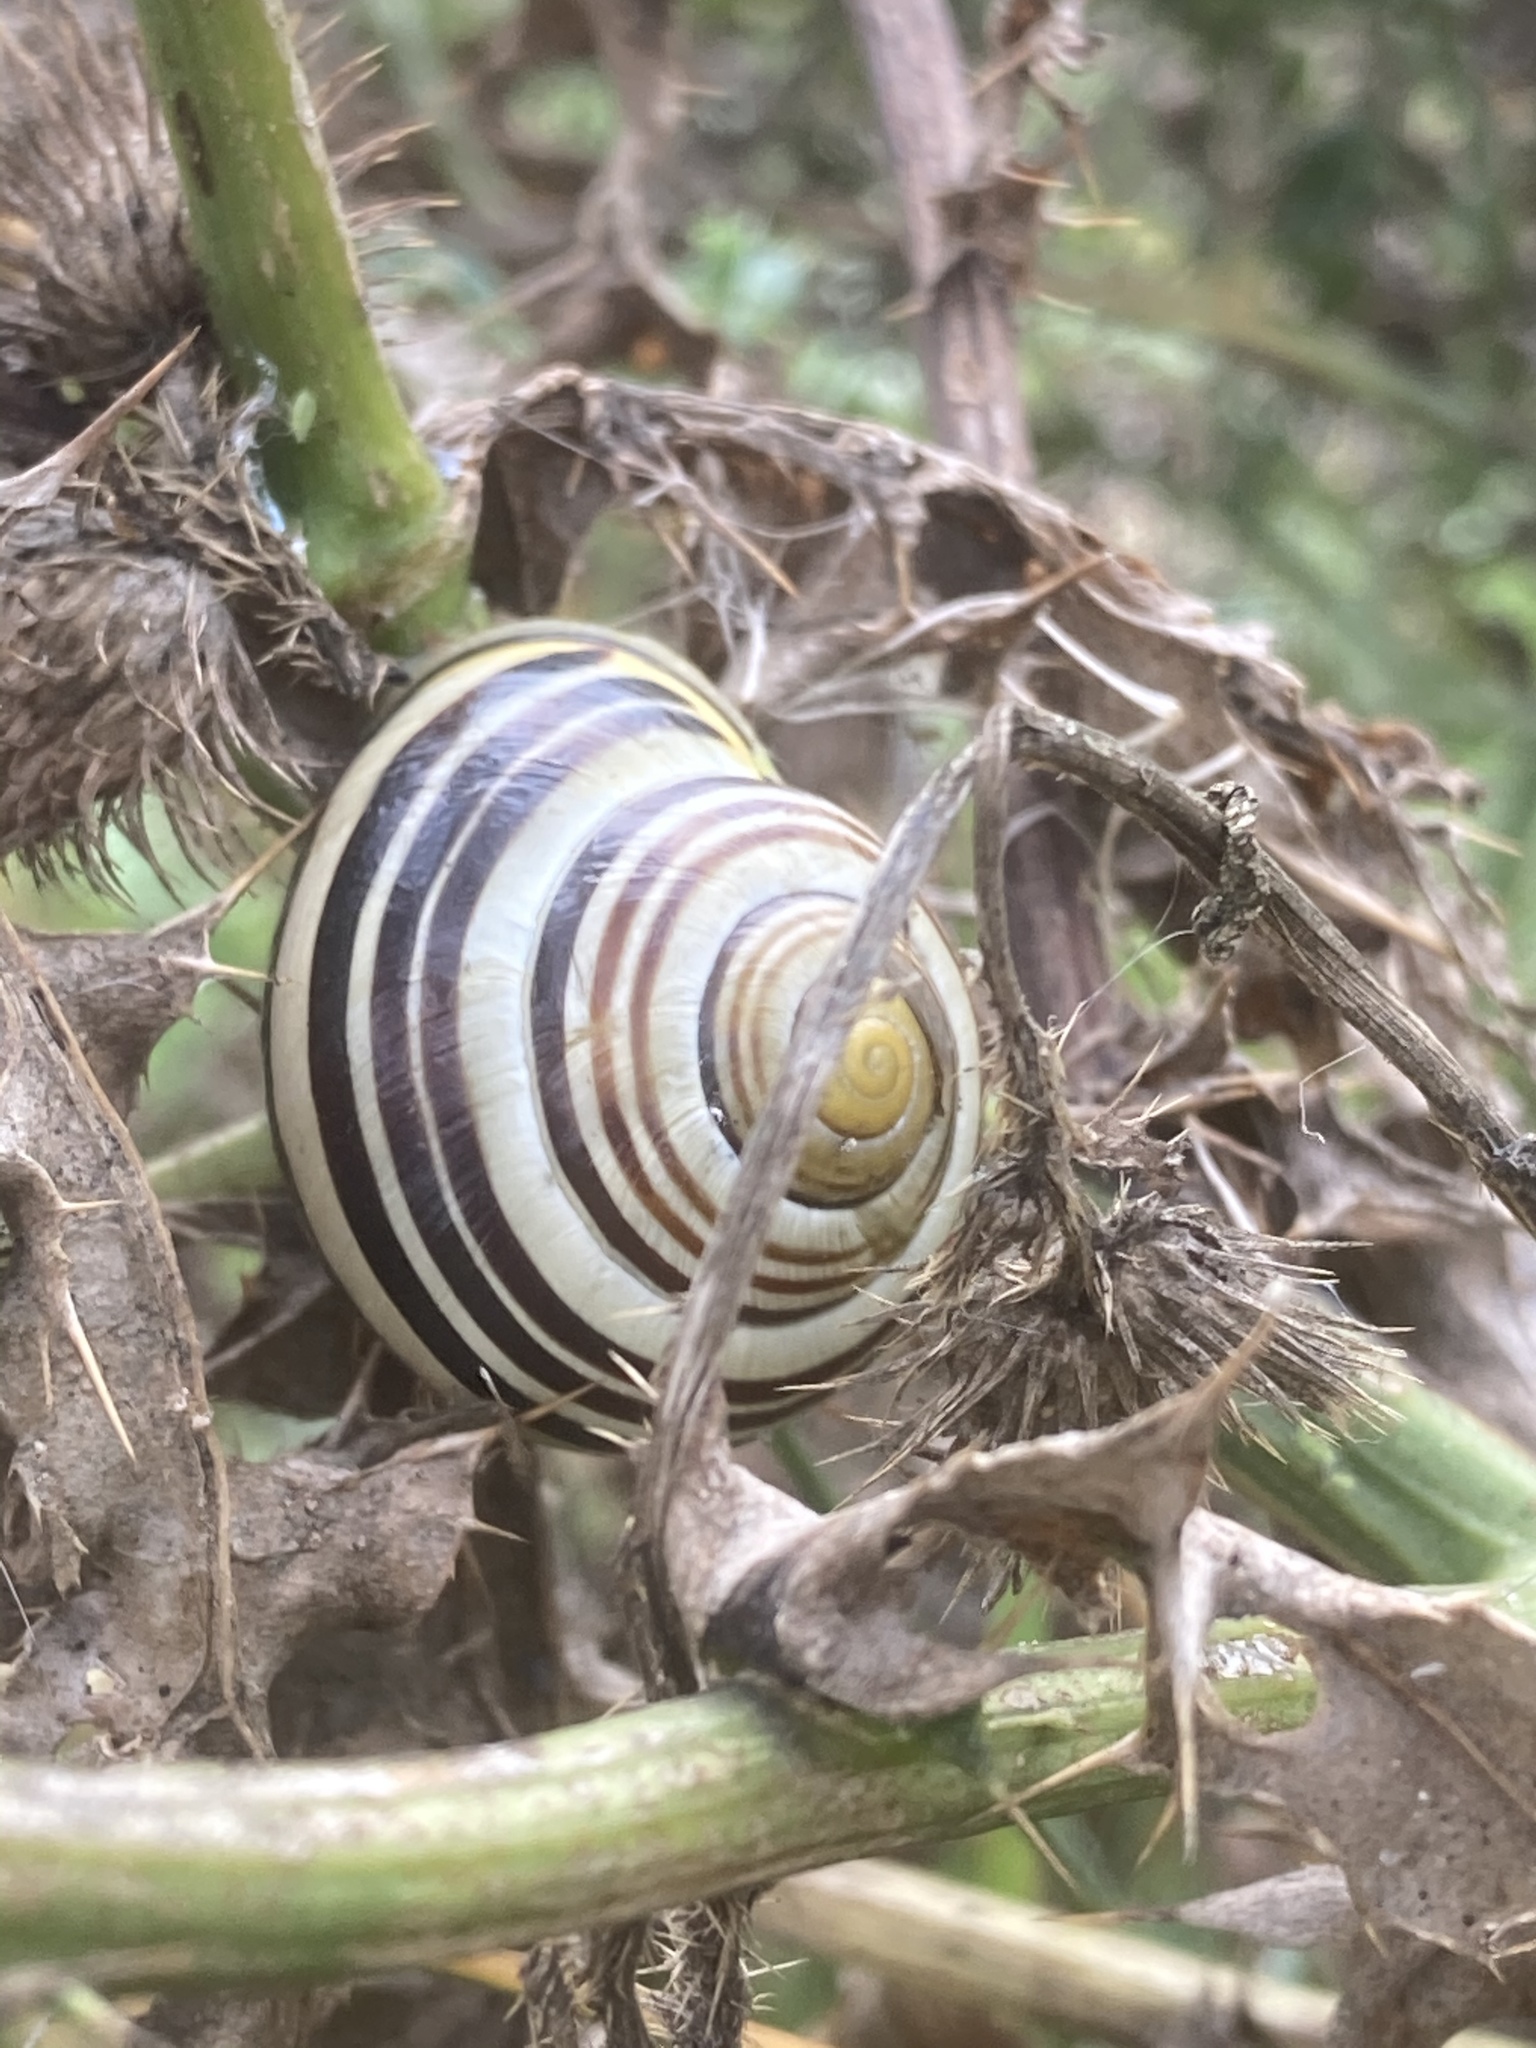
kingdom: Animalia
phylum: Mollusca
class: Gastropoda
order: Stylommatophora
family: Helicidae
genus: Cepaea
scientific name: Cepaea nemoralis
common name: Grovesnail
